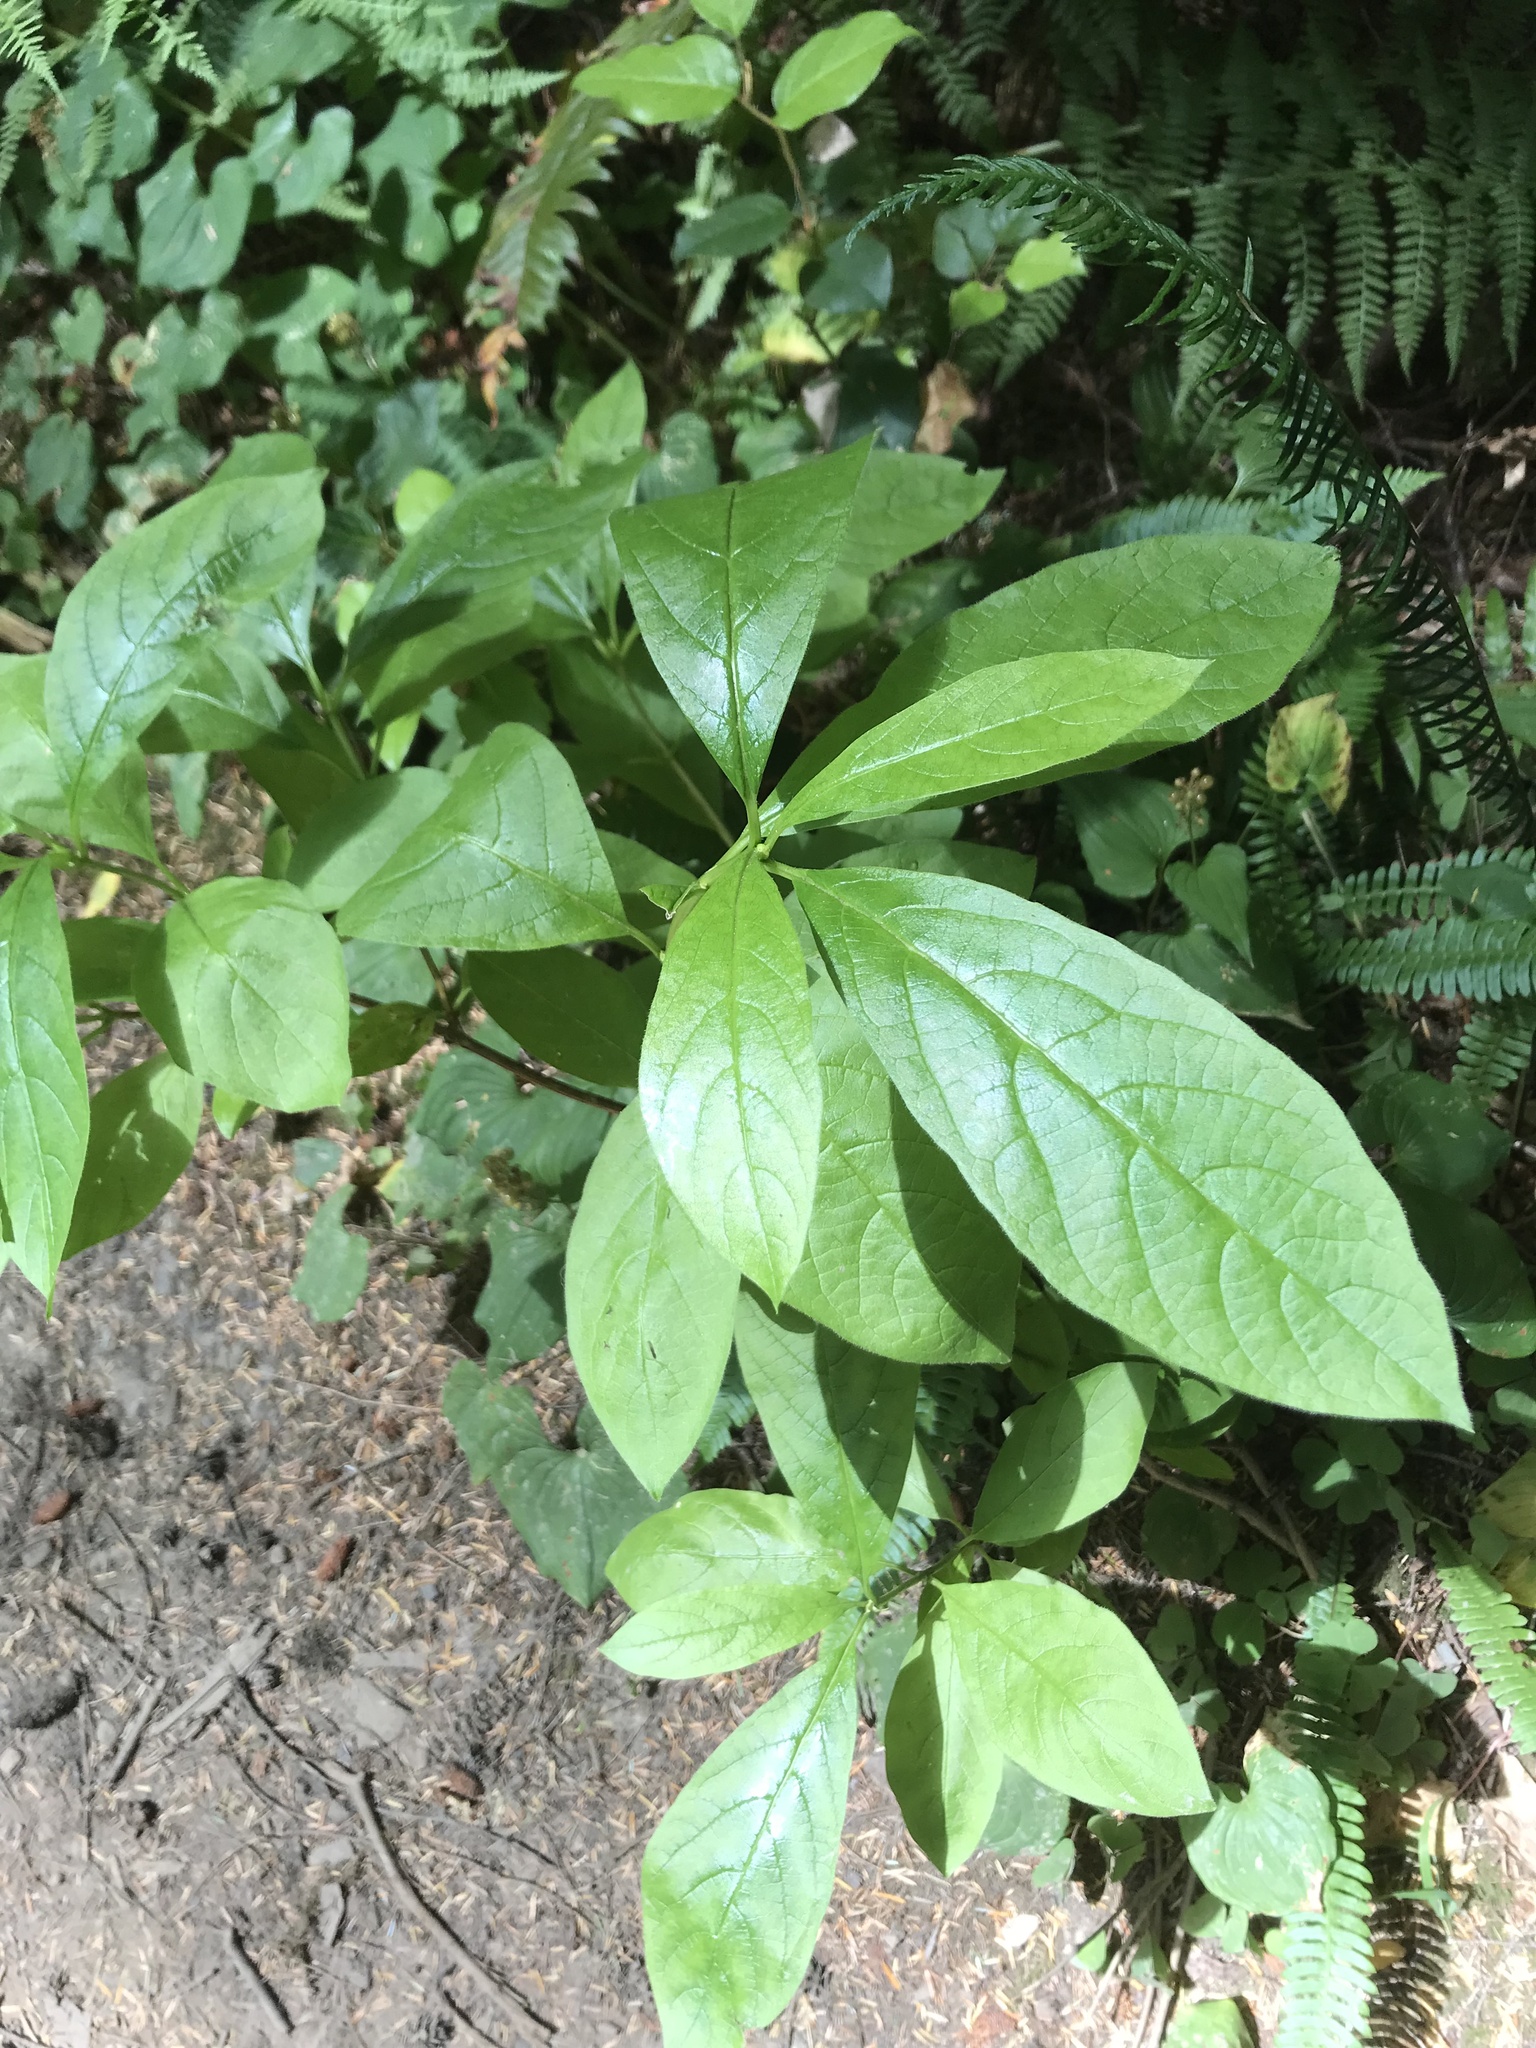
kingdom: Plantae
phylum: Tracheophyta
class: Magnoliopsida
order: Ericales
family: Ericaceae
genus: Rhododendron
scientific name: Rhododendron menziesii
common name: Pacific menziesia
